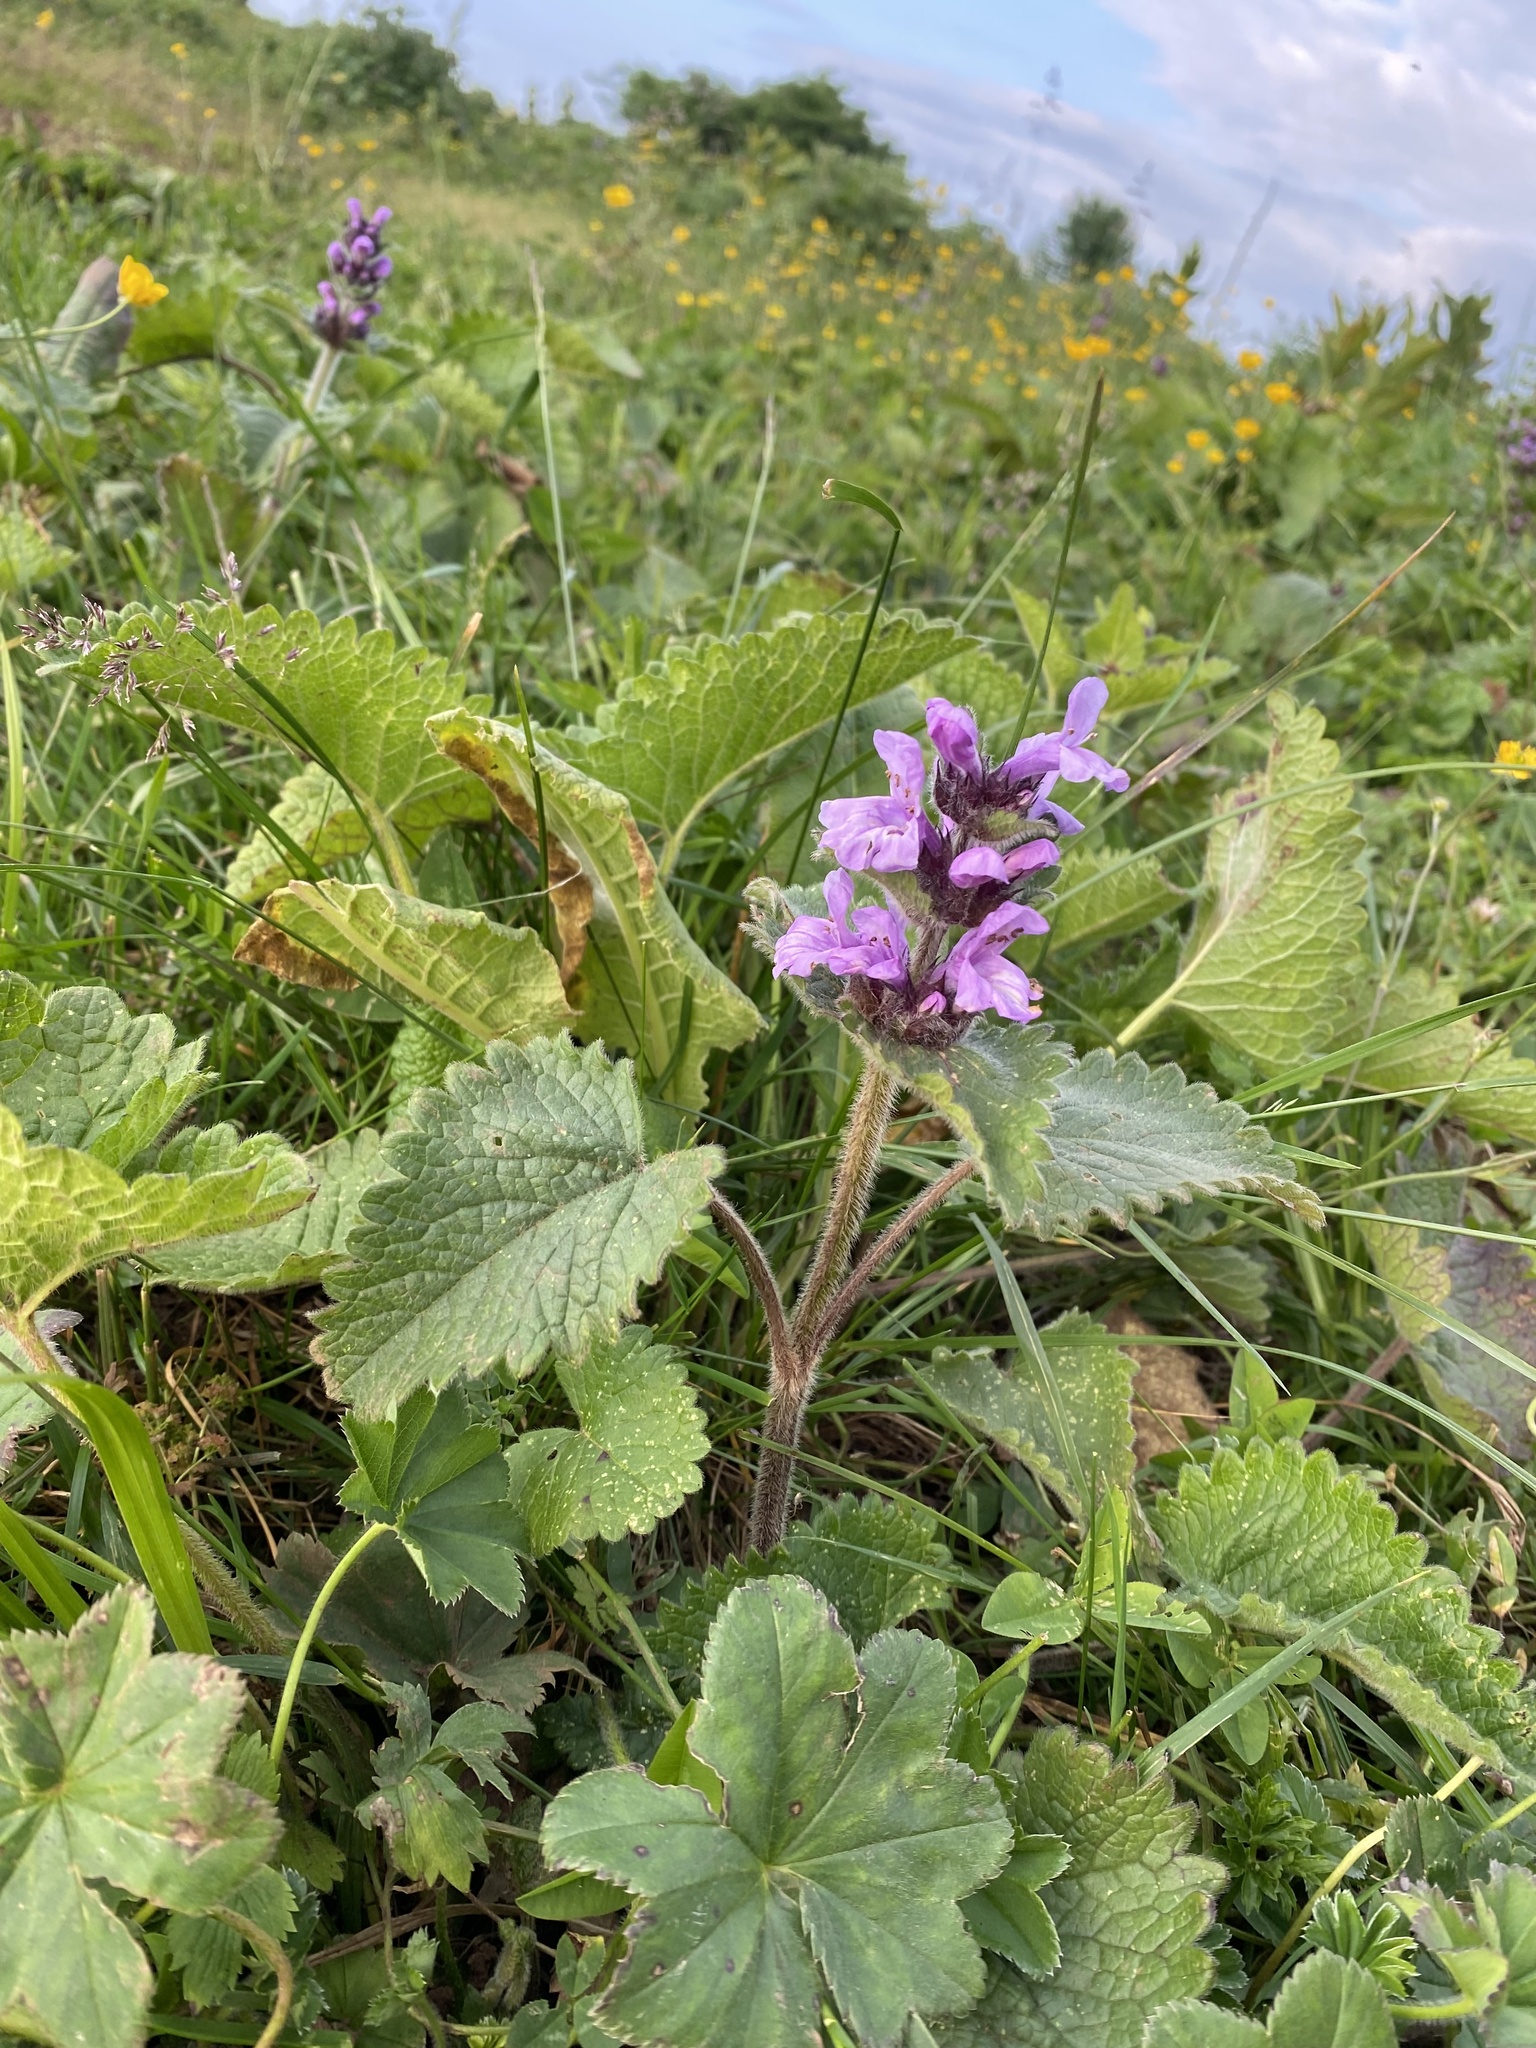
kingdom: Plantae
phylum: Tracheophyta
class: Magnoliopsida
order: Lamiales
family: Lamiaceae
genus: Betonica
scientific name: Betonica macrantha
